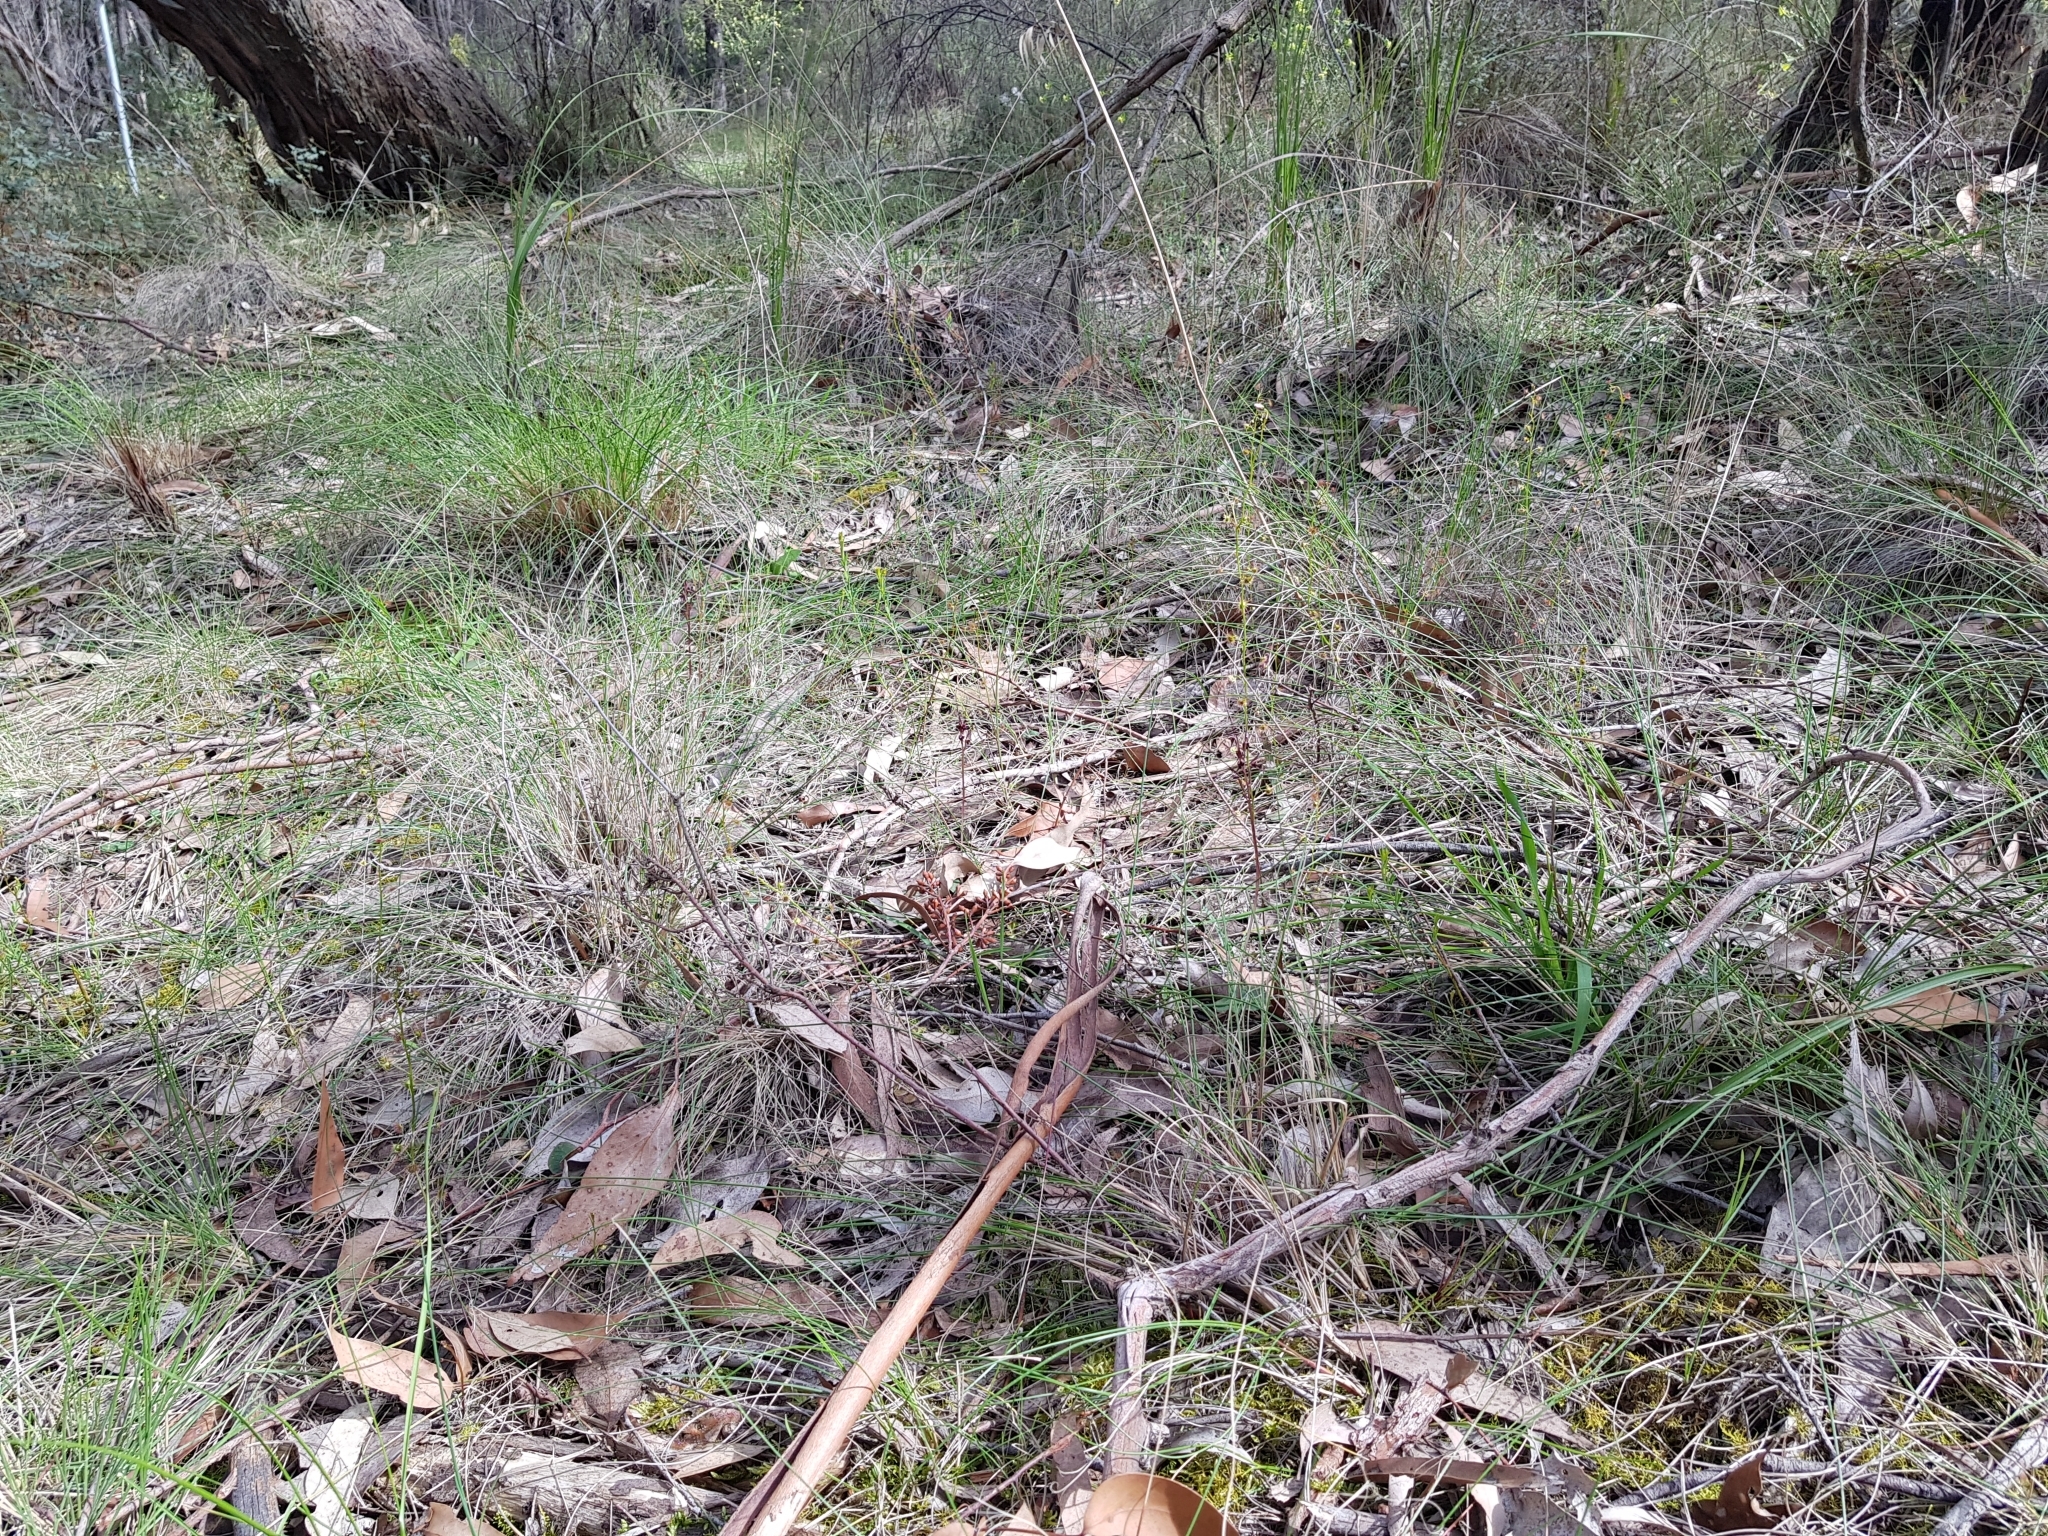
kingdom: Plantae
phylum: Tracheophyta
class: Liliopsida
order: Asparagales
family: Orchidaceae
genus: Acianthus
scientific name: Acianthus caudatus
